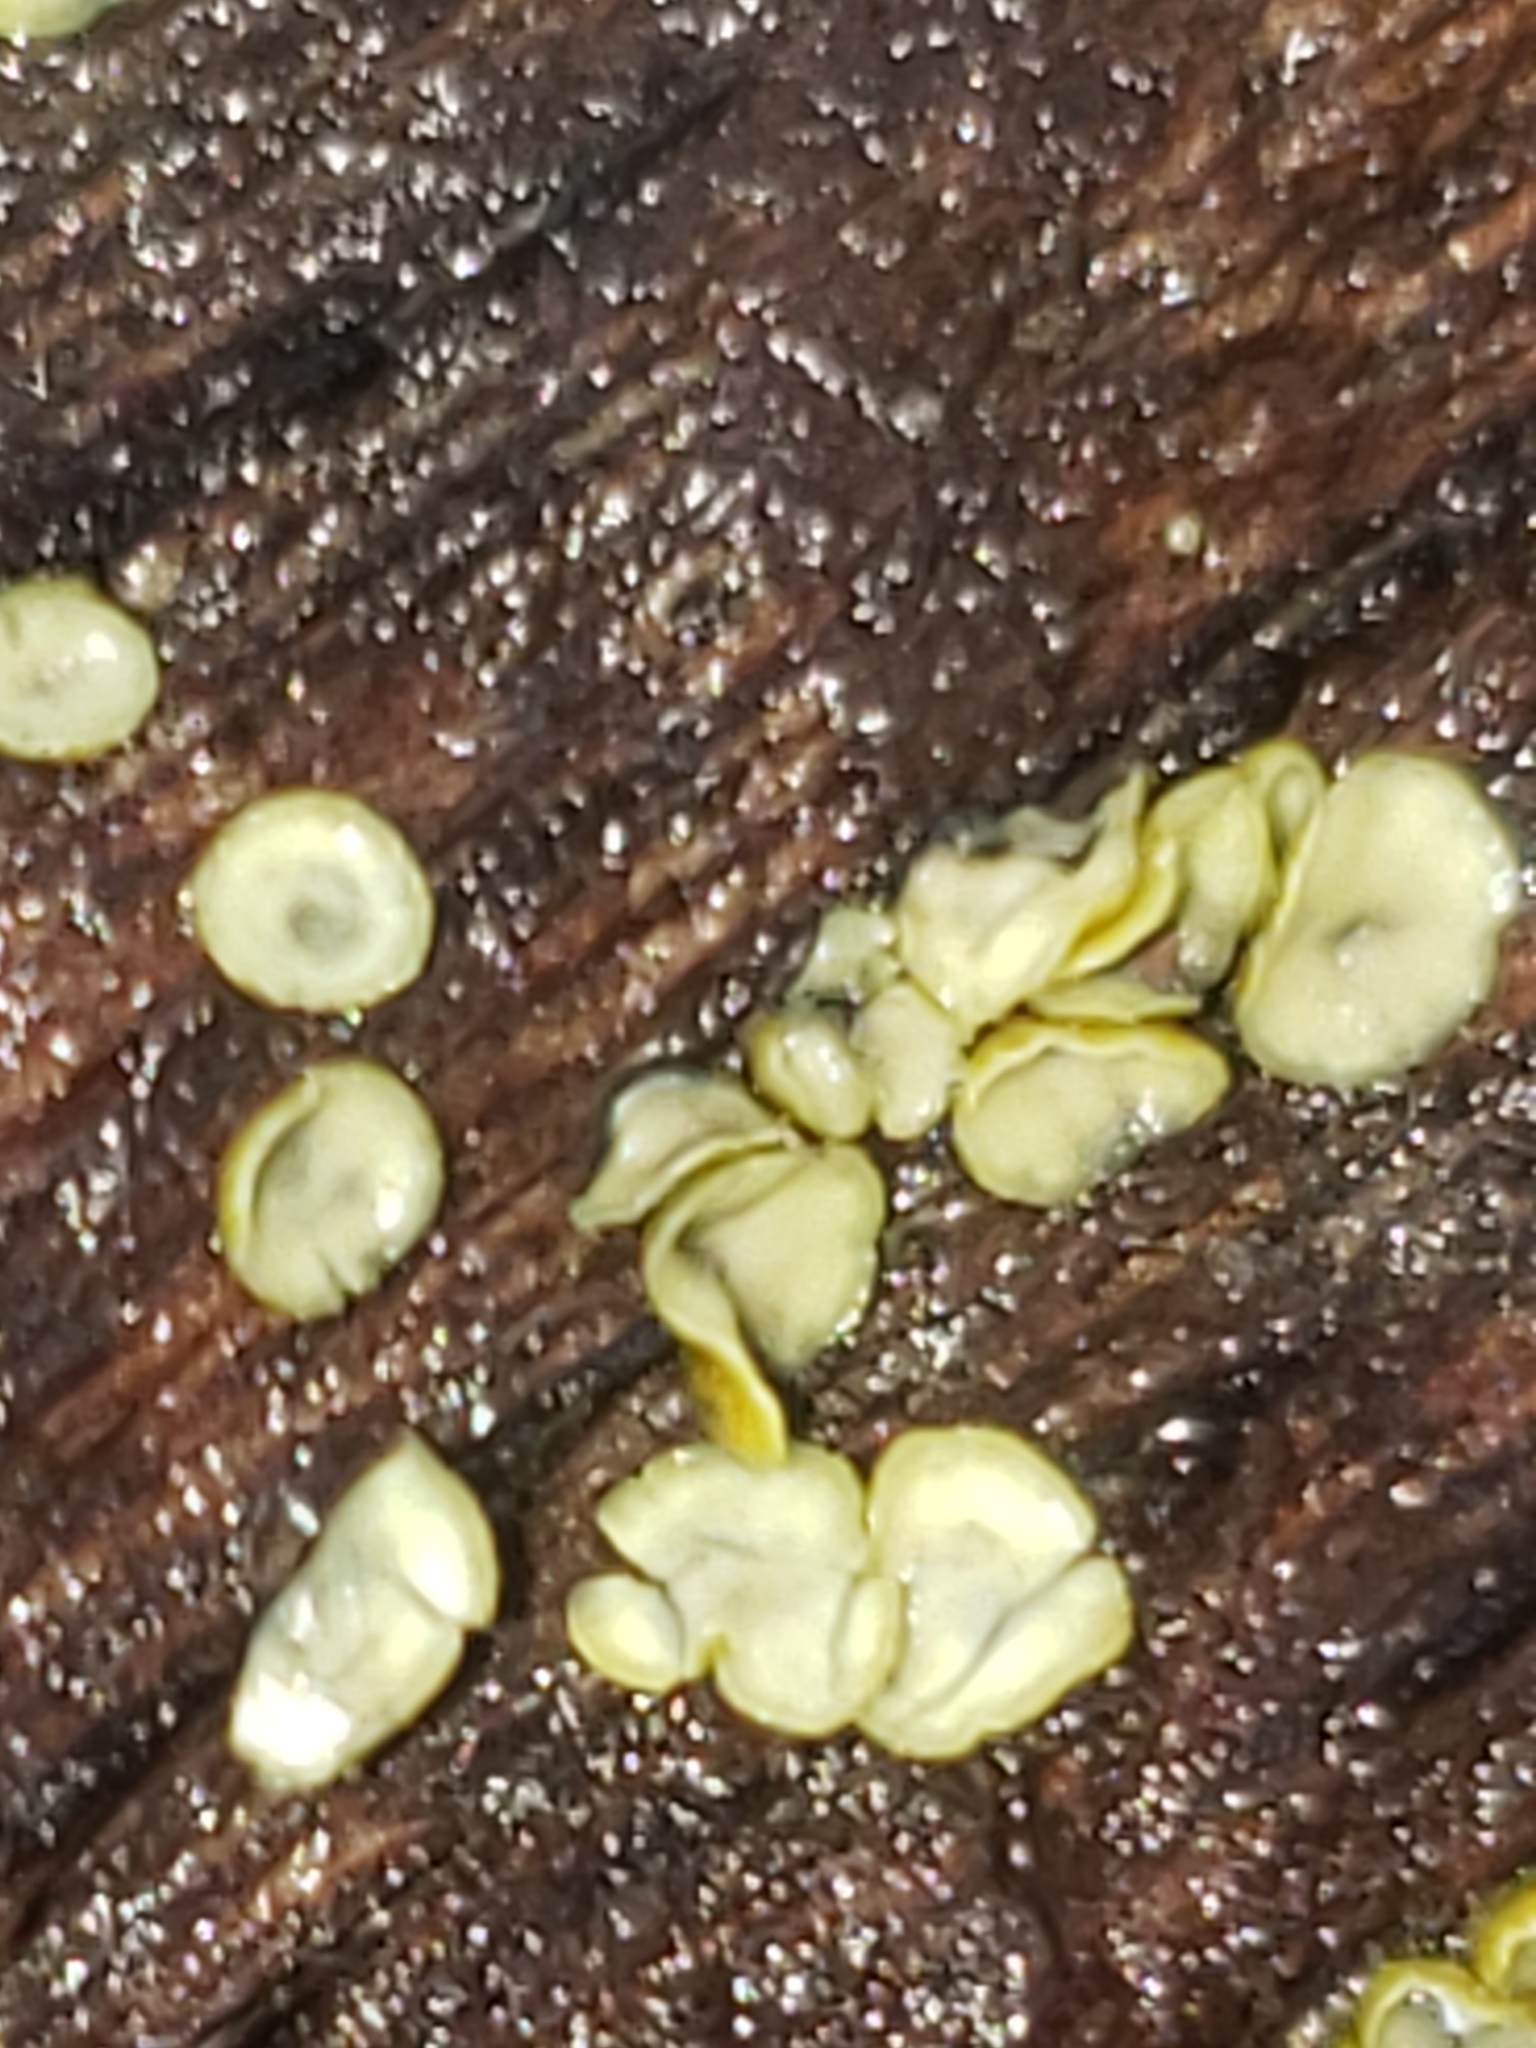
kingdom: Fungi
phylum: Ascomycota
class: Leotiomycetes
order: Helotiales
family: Chlorospleniaceae
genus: Chlorosplenium
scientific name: Chlorosplenium chlora
